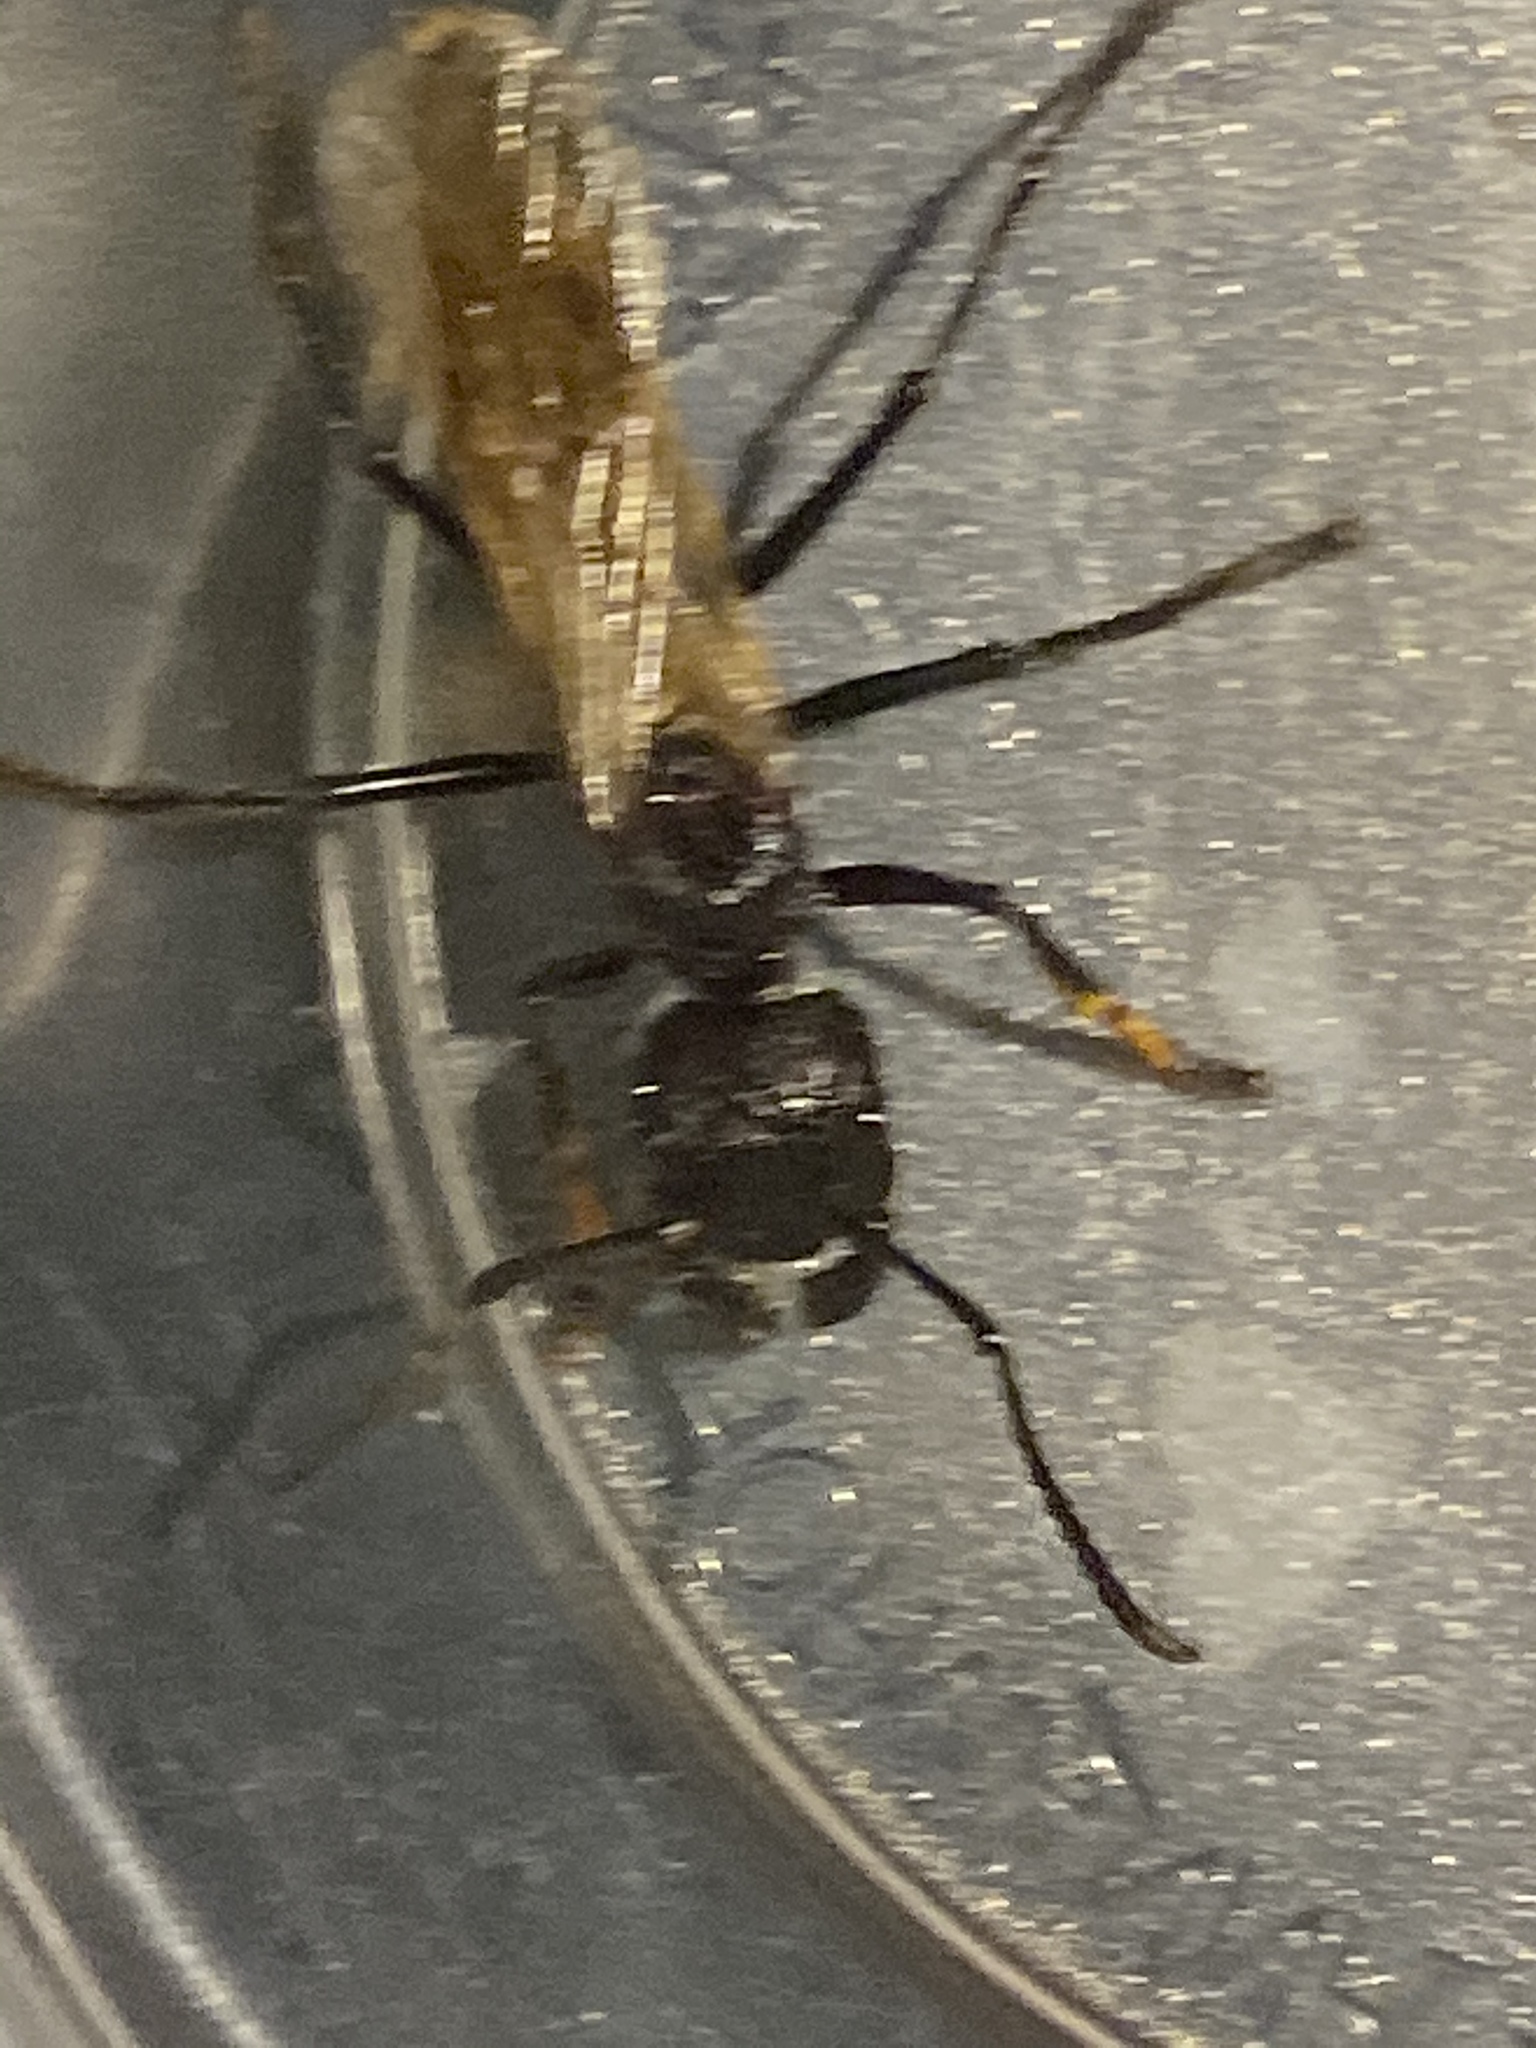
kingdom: Animalia
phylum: Arthropoda
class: Insecta
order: Hymenoptera
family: Formicidae
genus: Paraponera
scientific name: Paraponera clavata
